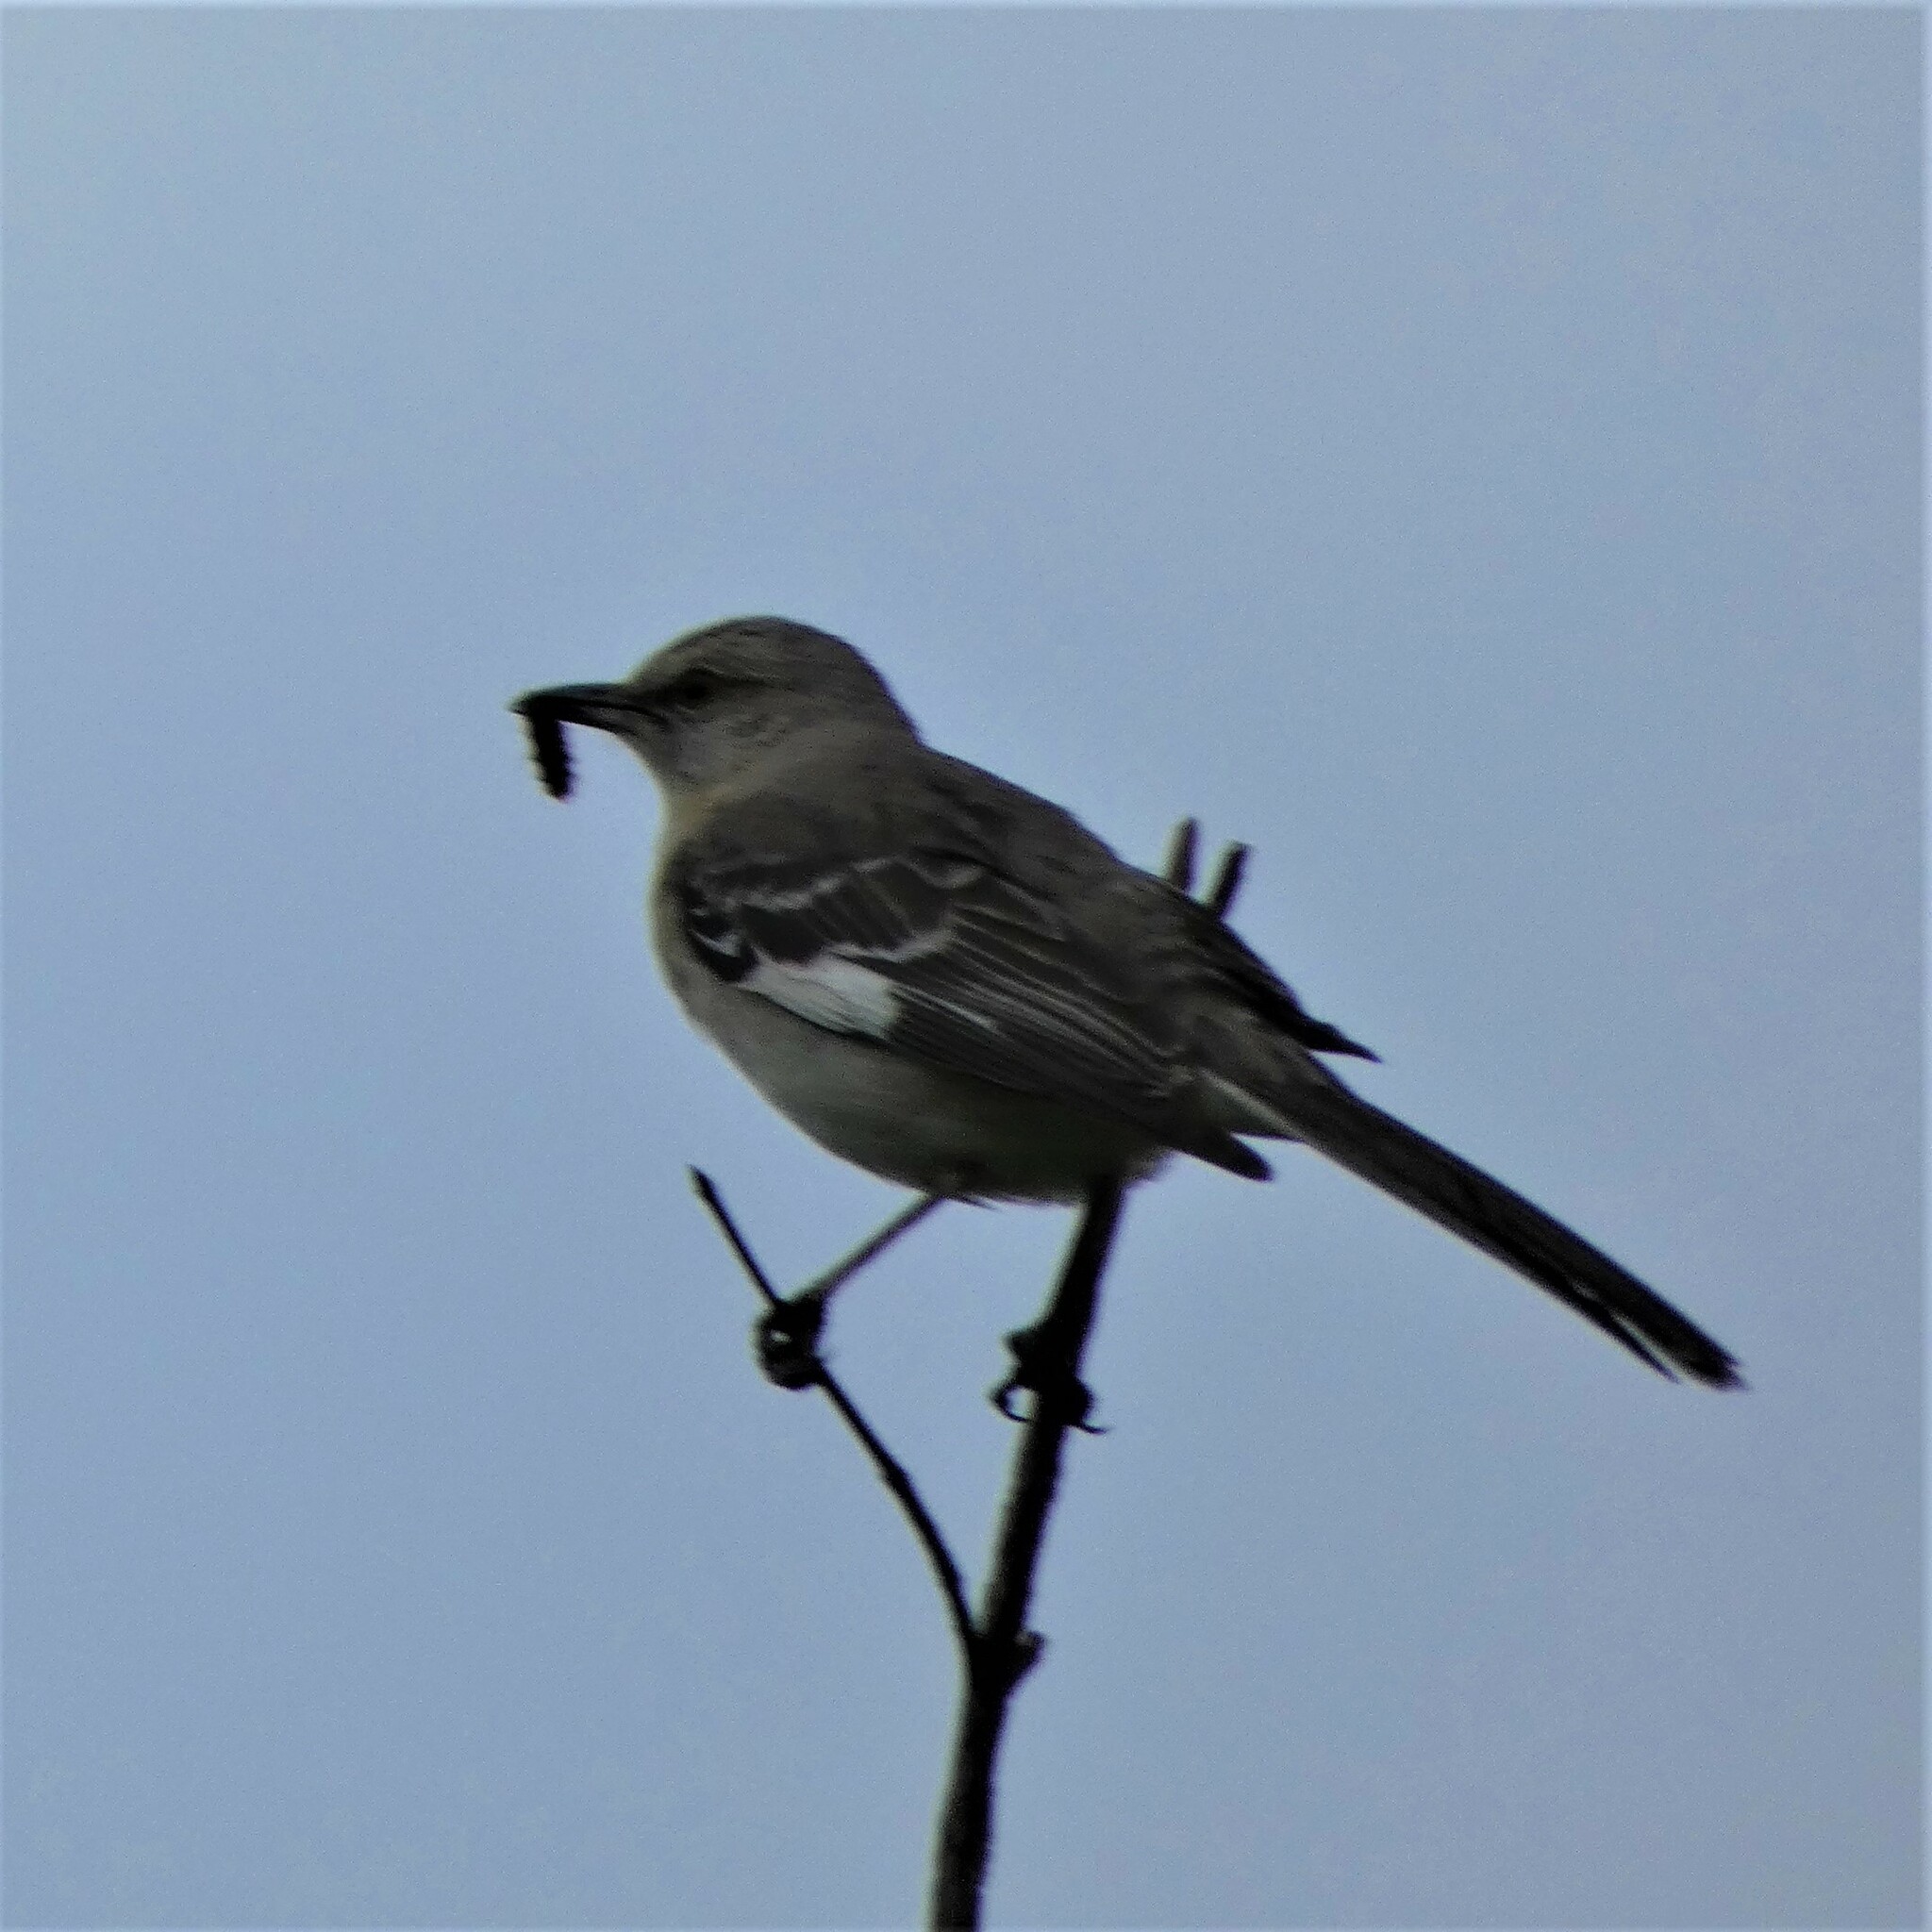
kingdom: Animalia
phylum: Chordata
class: Aves
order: Passeriformes
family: Mimidae
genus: Mimus
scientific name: Mimus polyglottos
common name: Northern mockingbird
